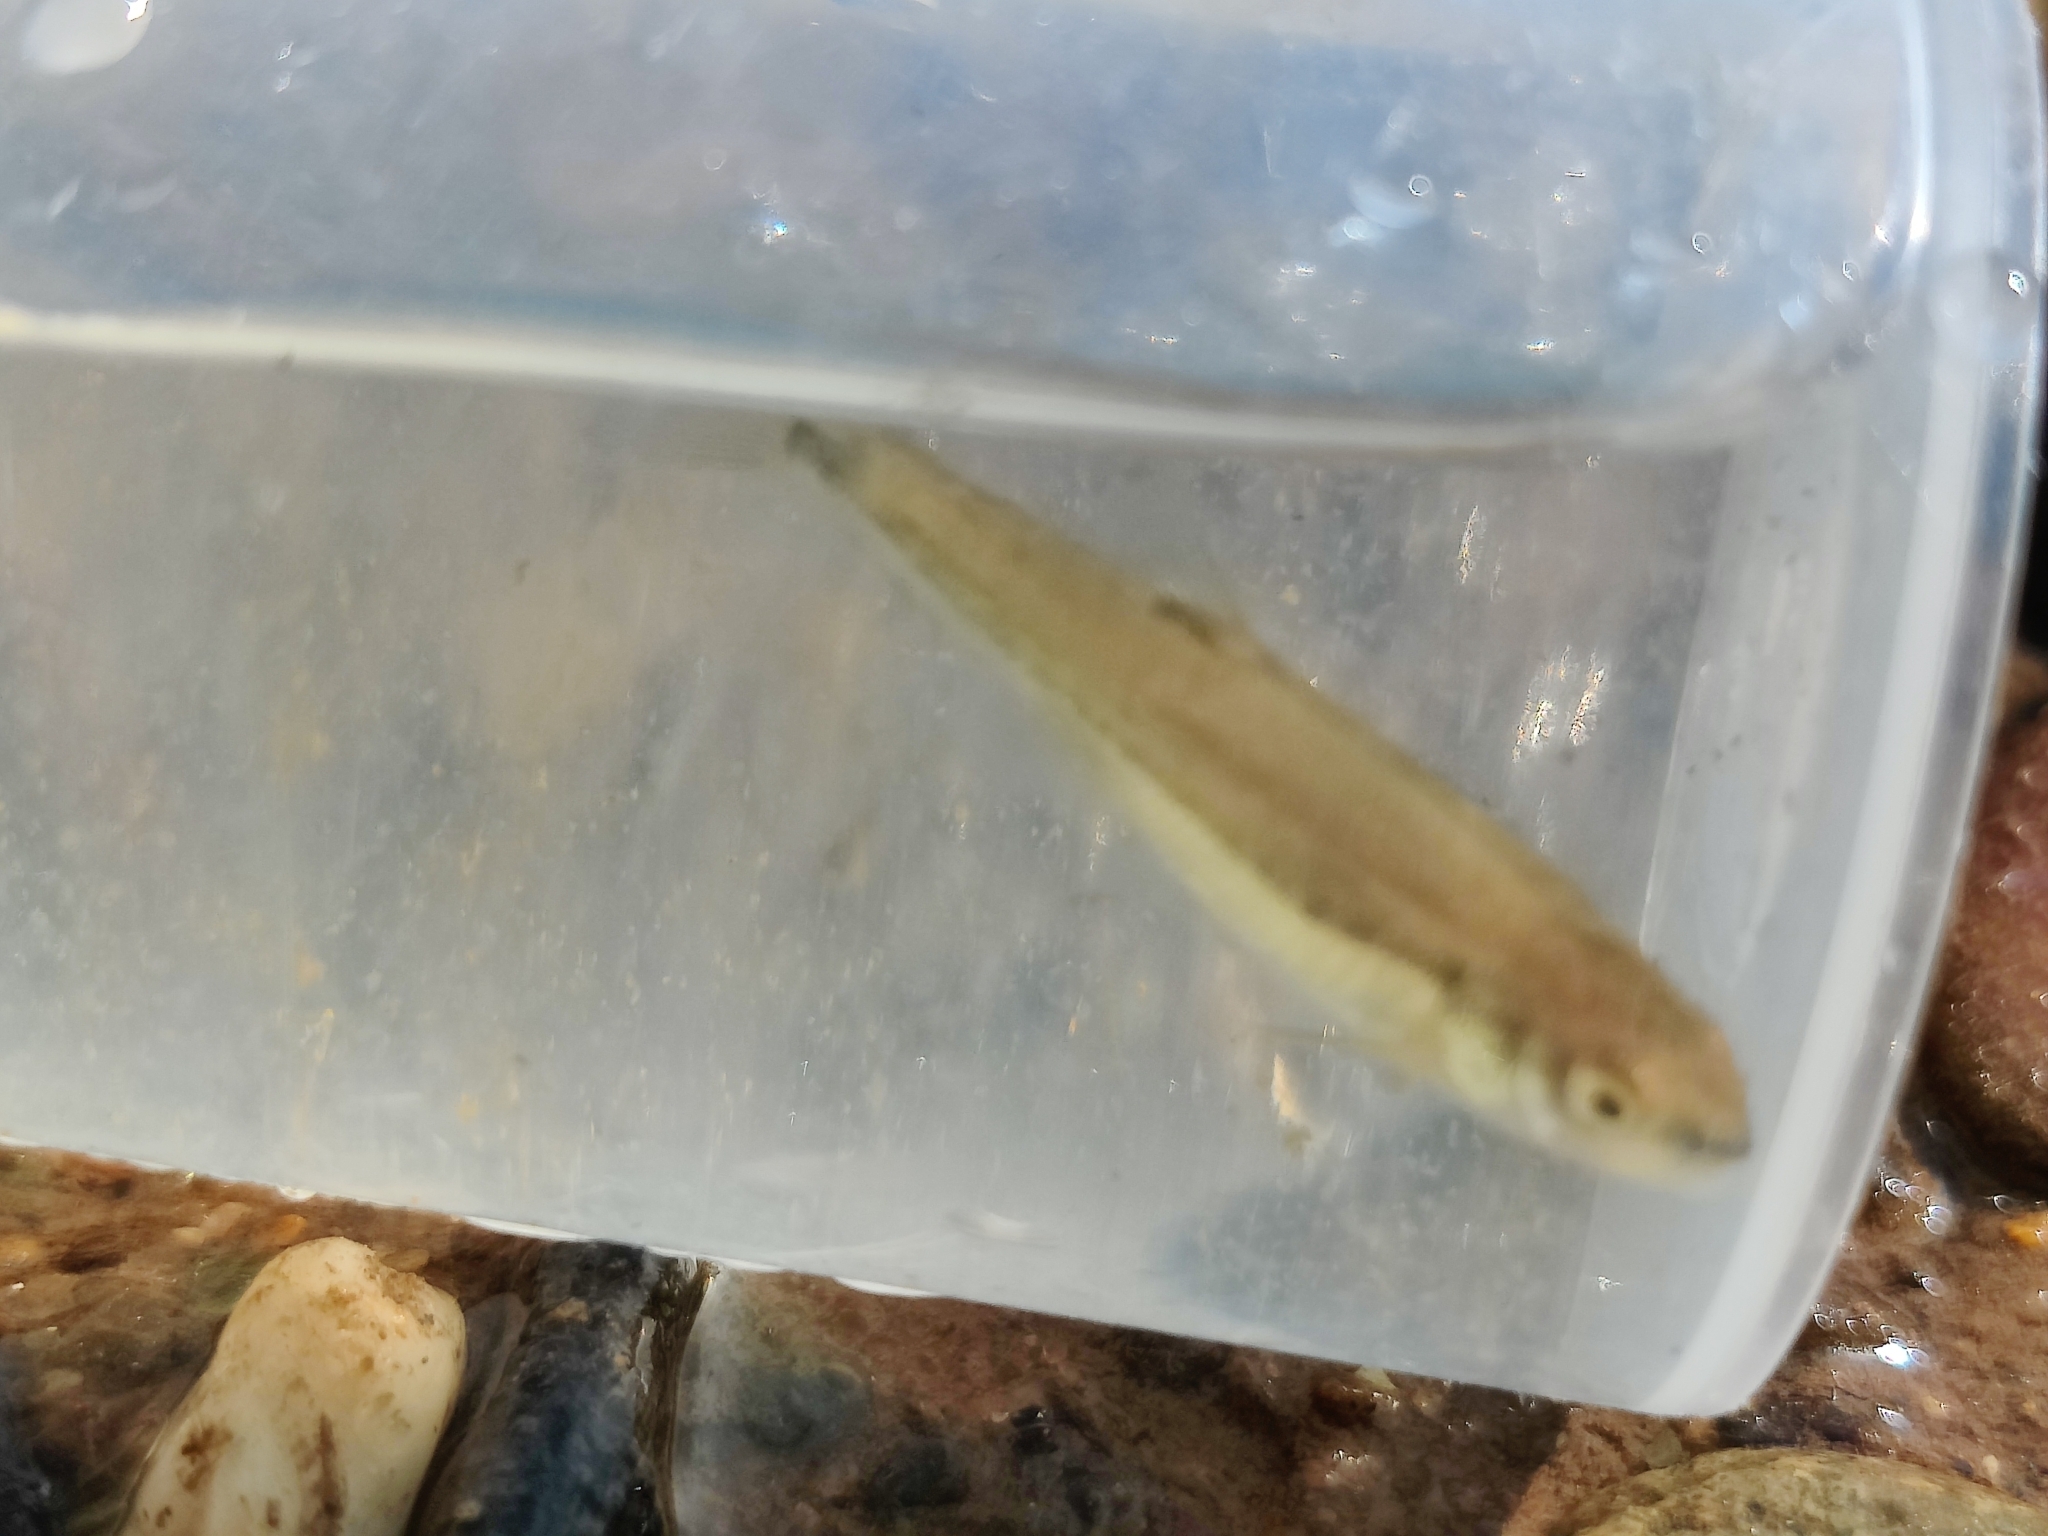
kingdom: Animalia
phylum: Chordata
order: Cypriniformes
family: Cyprinidae
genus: Phoxinus
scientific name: Phoxinus phoxinus
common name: Minnow
